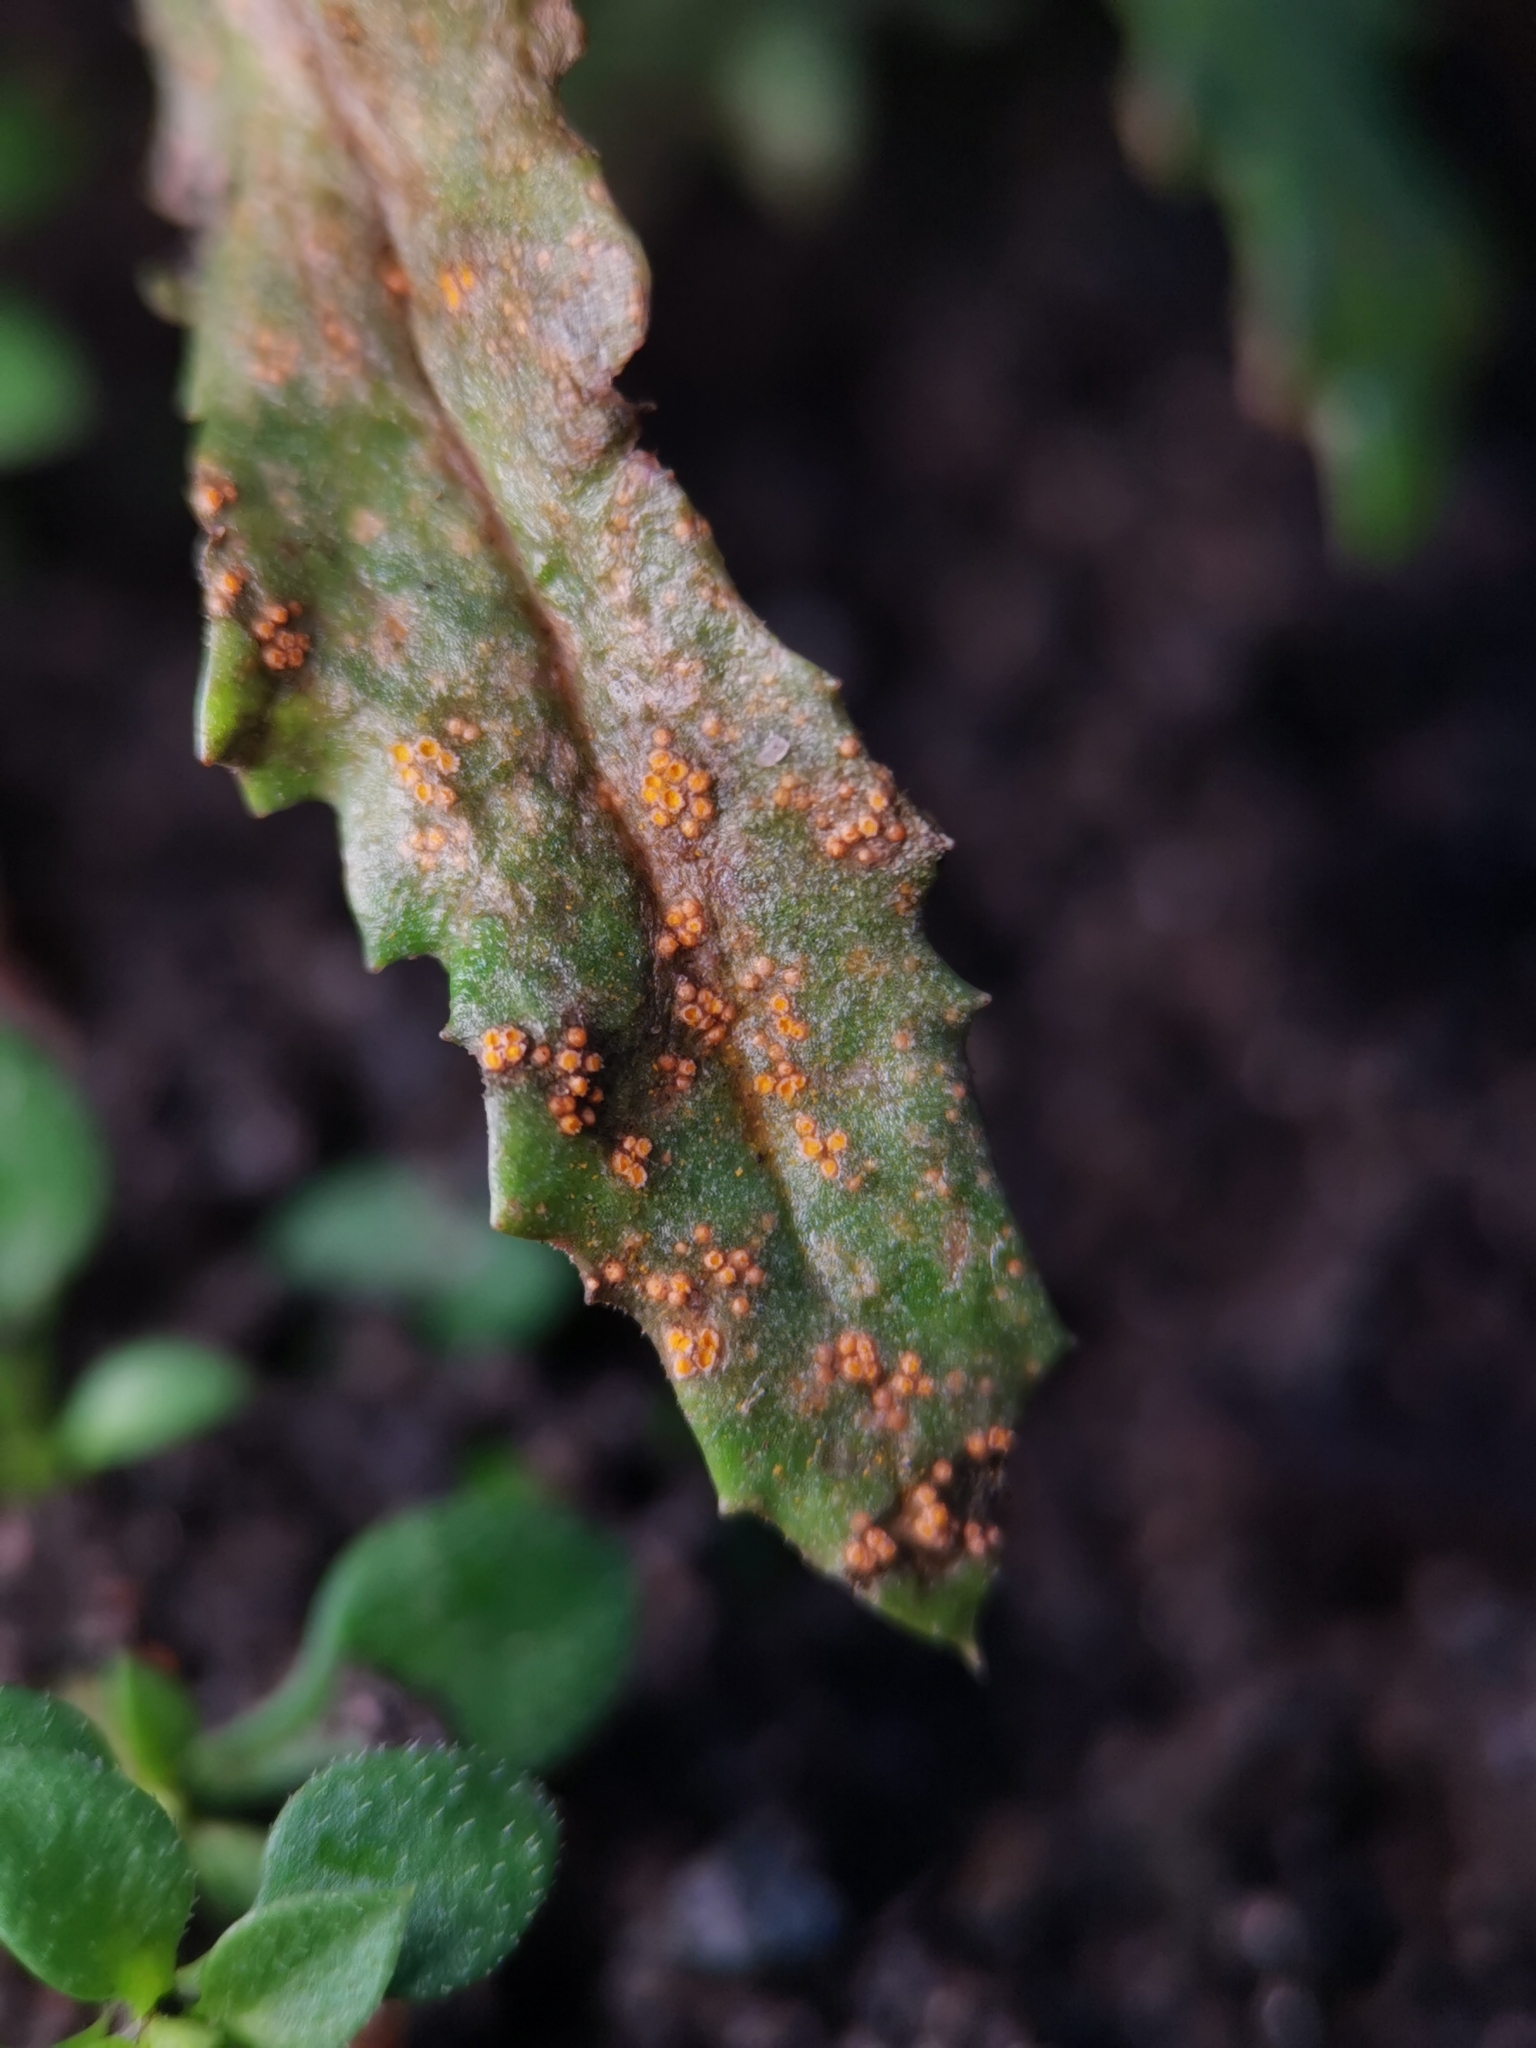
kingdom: Fungi
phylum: Basidiomycota
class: Pucciniomycetes
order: Pucciniales
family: Pucciniaceae
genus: Puccinia
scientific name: Puccinia lagenophorae
